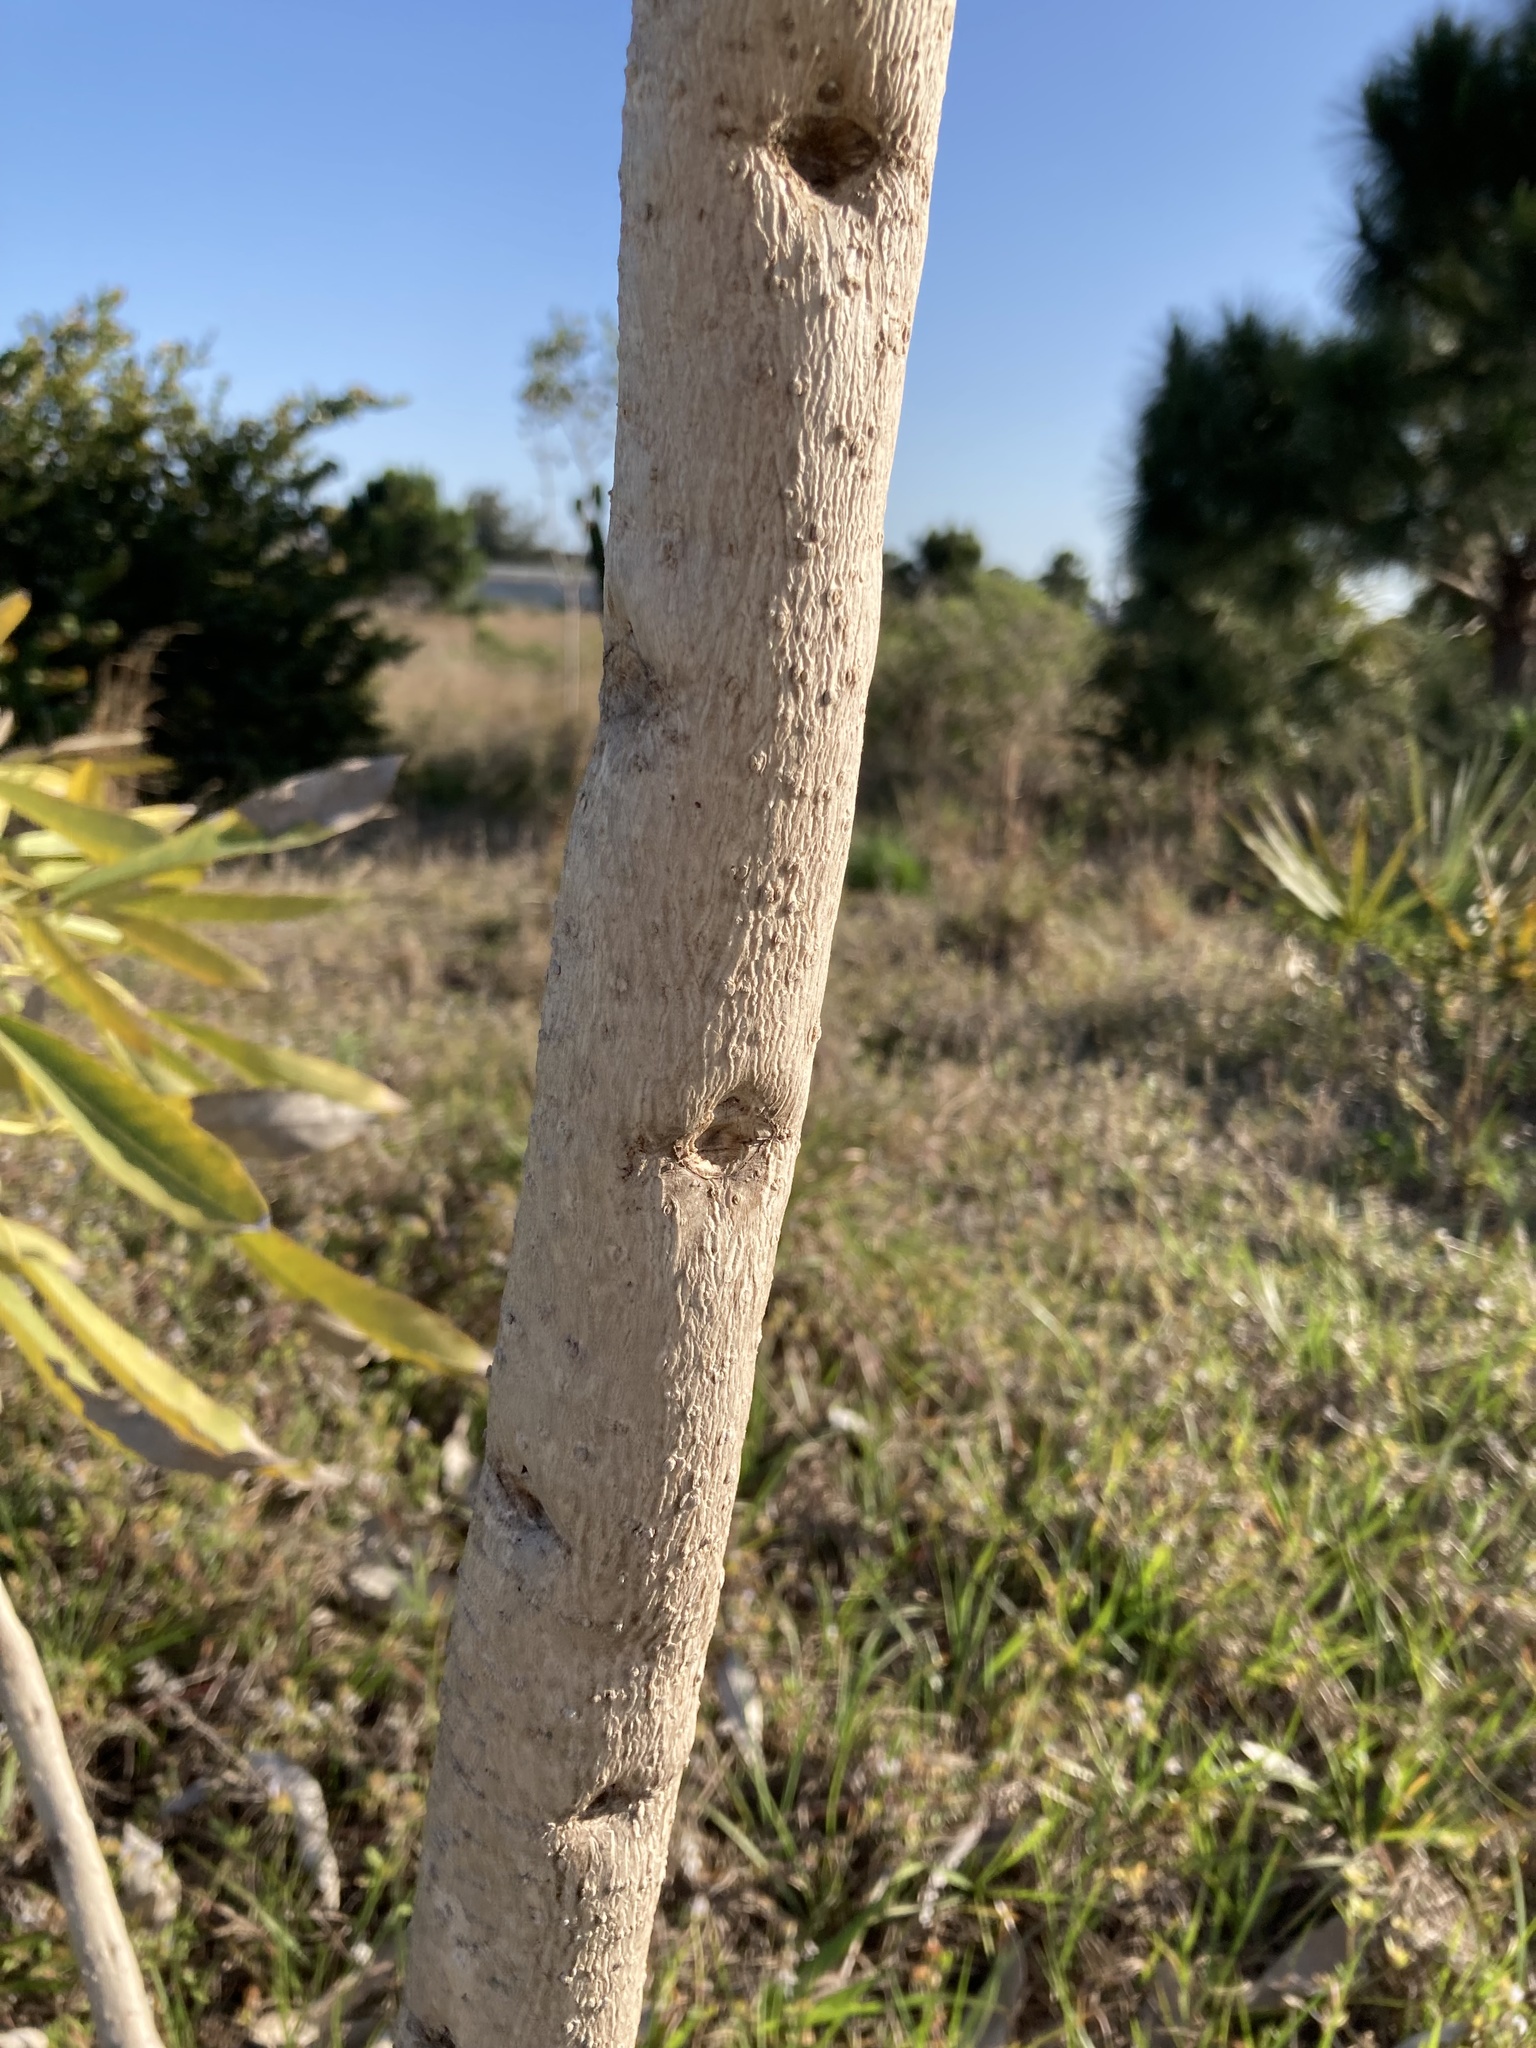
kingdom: Plantae
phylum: Tracheophyta
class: Magnoliopsida
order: Lamiales
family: Bignoniaceae
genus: Tabebuia
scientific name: Tabebuia aurea
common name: Caribbean trumpet-tree
